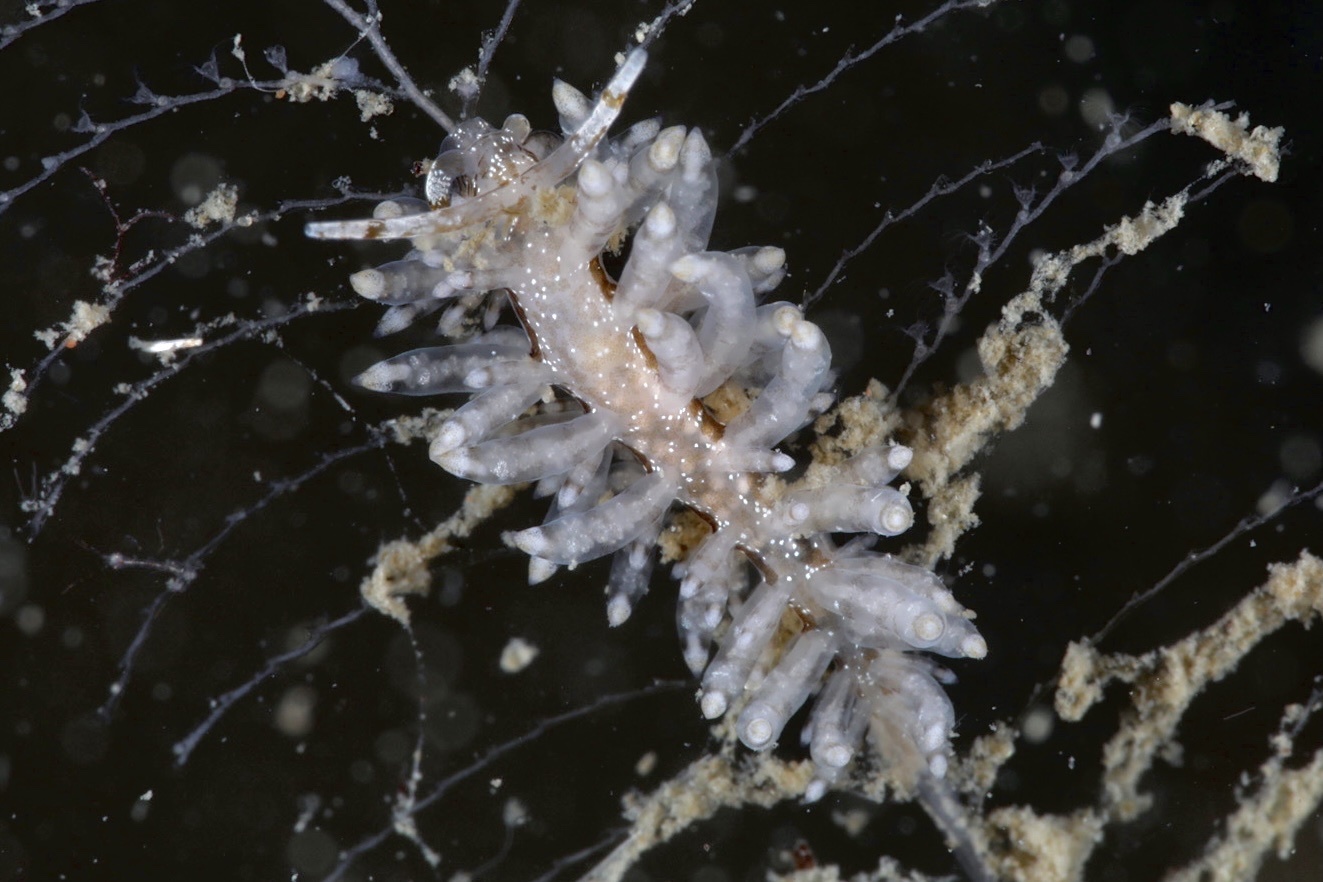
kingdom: Animalia
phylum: Mollusca
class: Gastropoda
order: Nudibranchia
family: Eubranchidae
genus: Eubranchus
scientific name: Eubranchus vittatus
